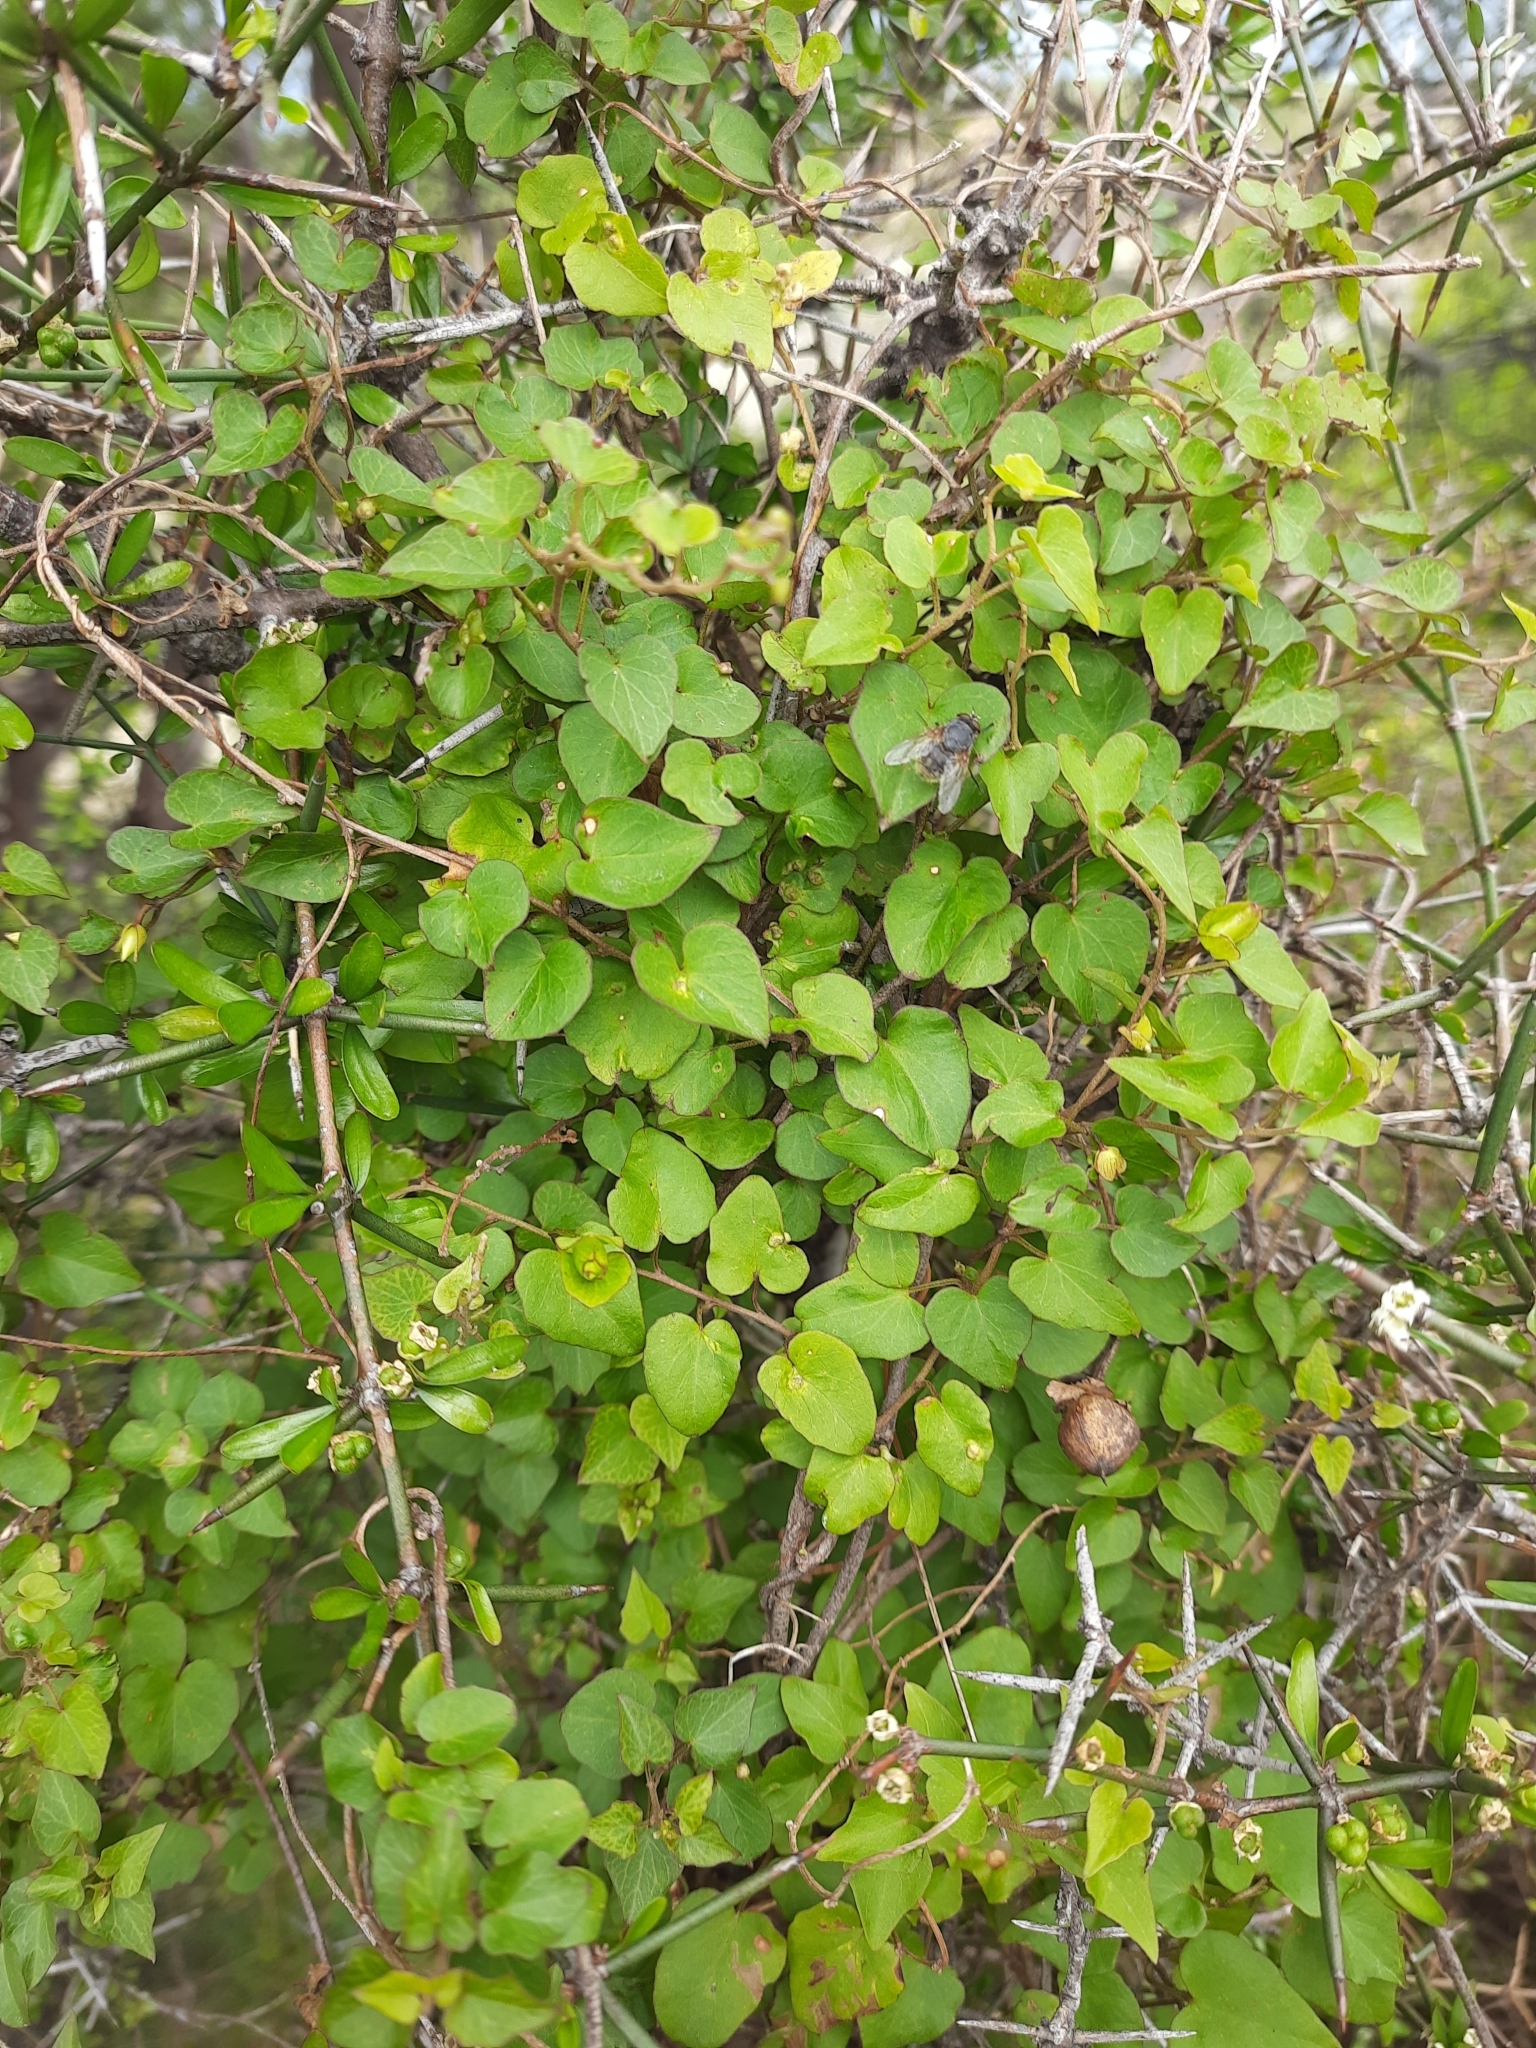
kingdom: Plantae
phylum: Tracheophyta
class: Magnoliopsida
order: Solanales
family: Convolvulaceae
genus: Calystegia
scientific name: Calystegia tuguriorum
